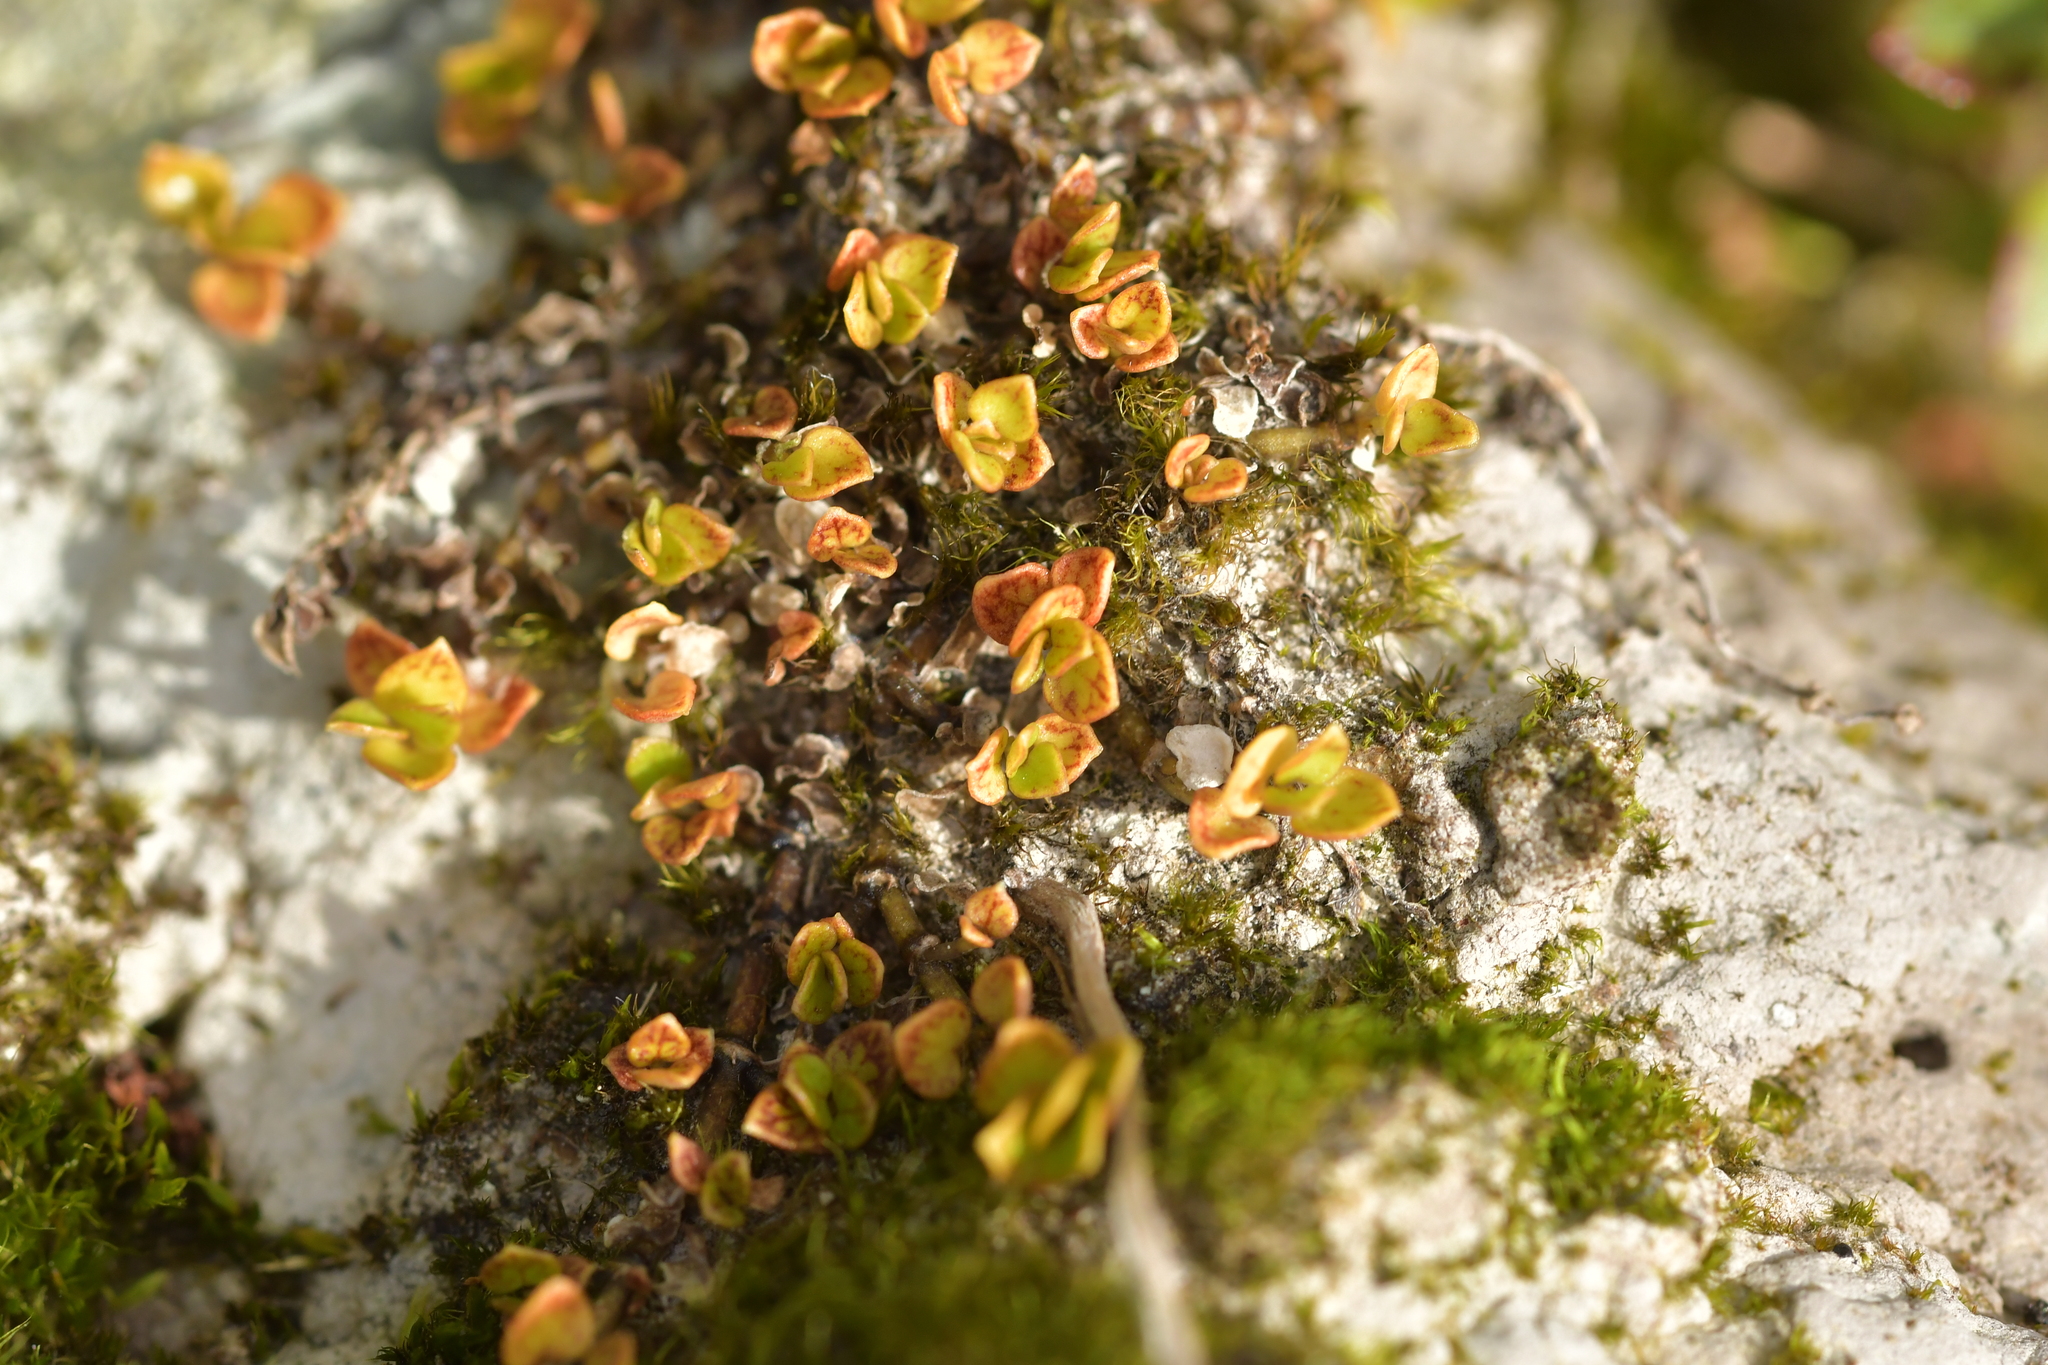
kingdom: Plantae
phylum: Tracheophyta
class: Magnoliopsida
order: Gentianales
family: Rubiaceae
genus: Nertera
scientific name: Nertera granadensis
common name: Beadplant
